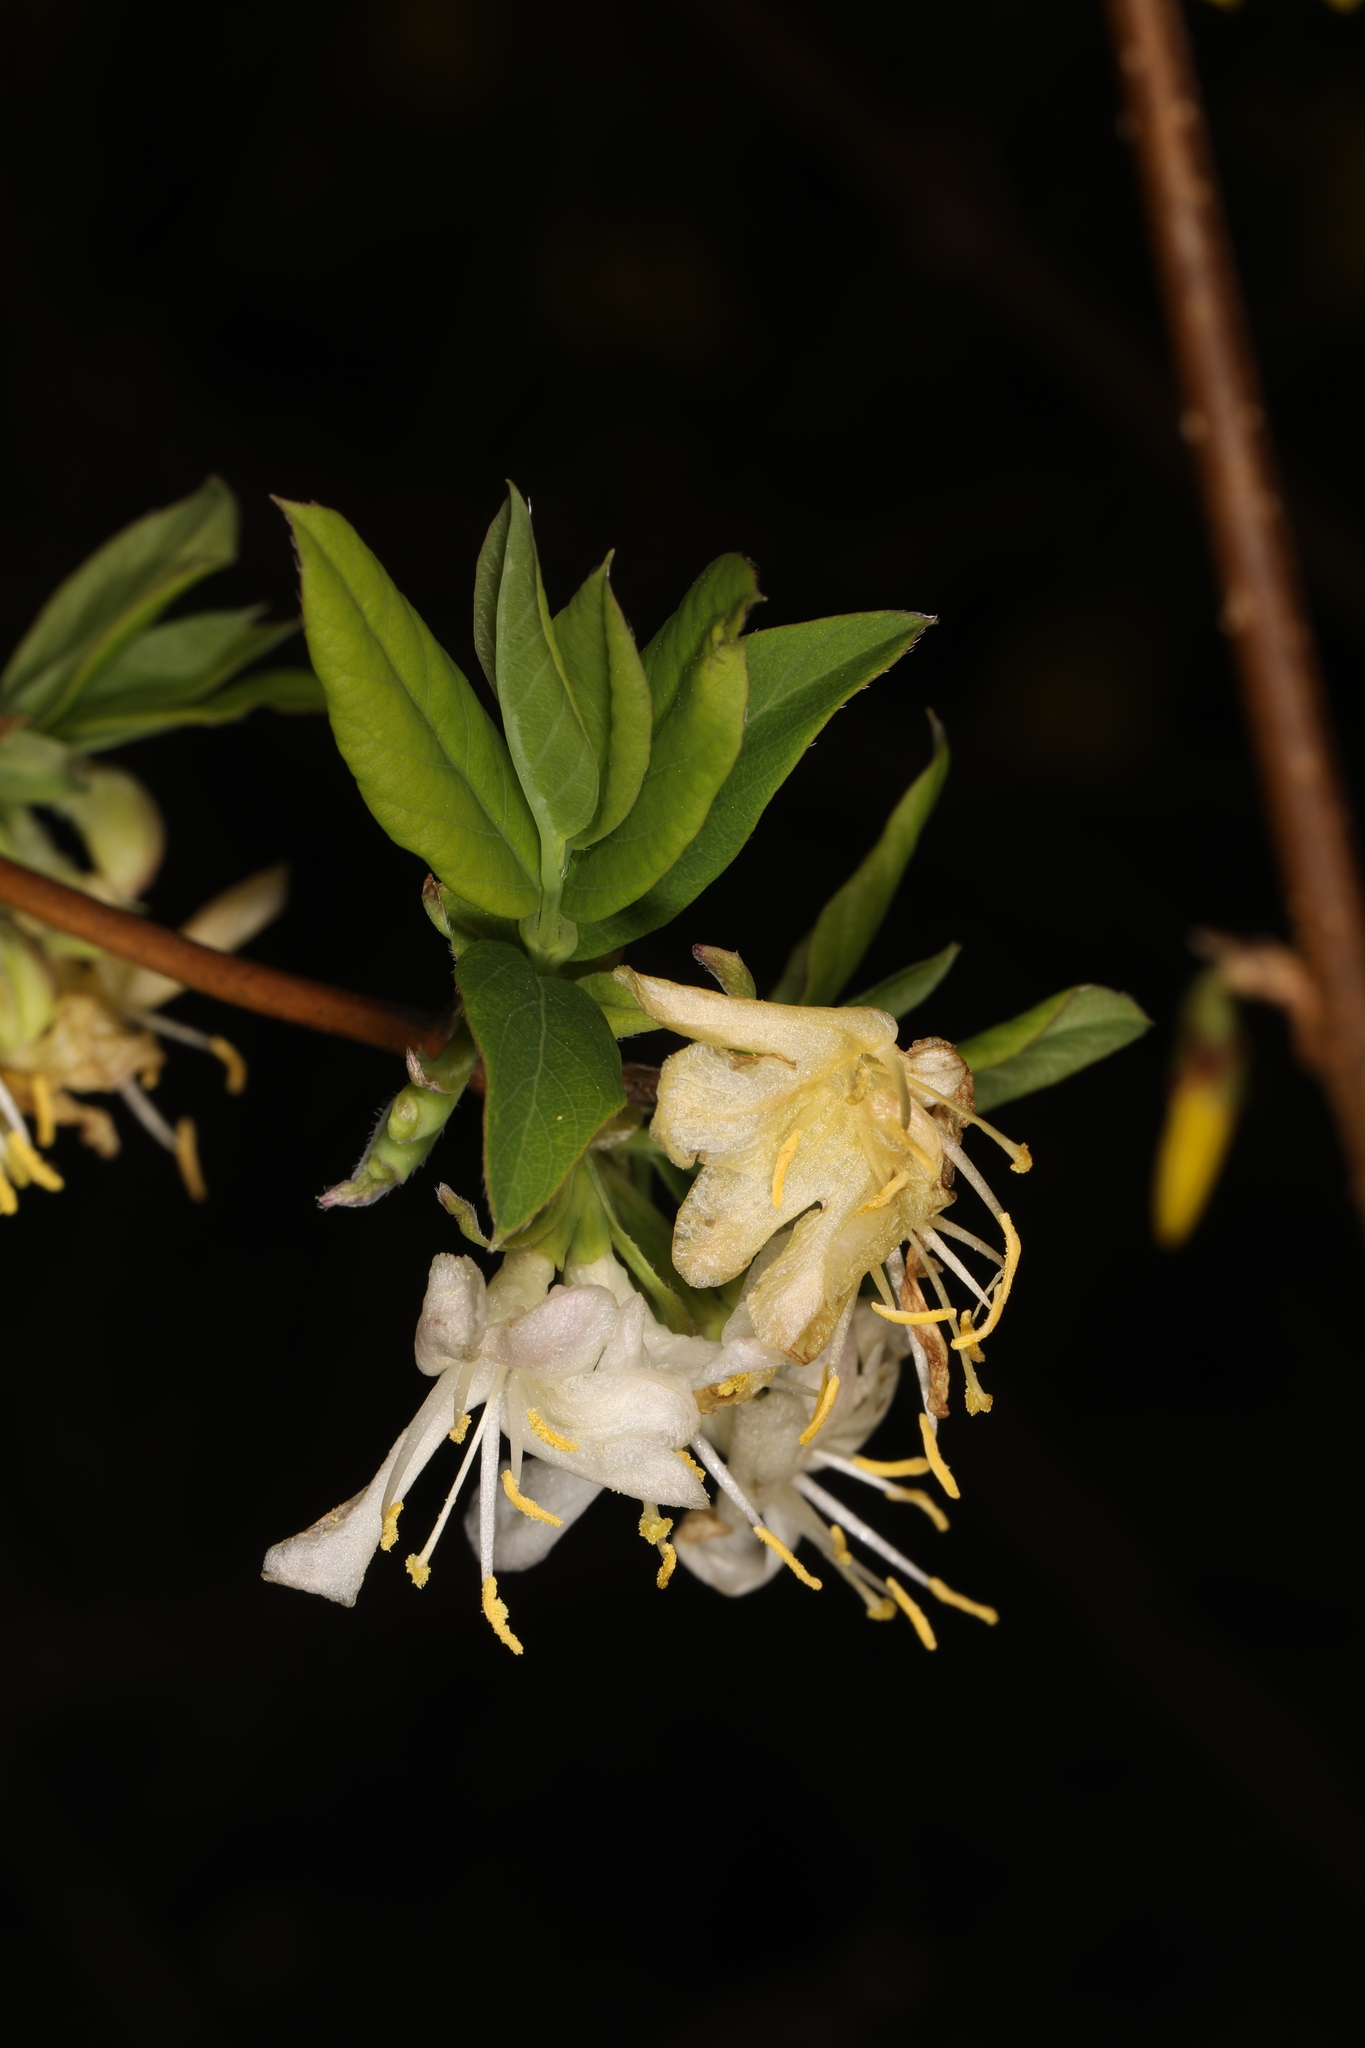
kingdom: Plantae
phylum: Tracheophyta
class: Magnoliopsida
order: Dipsacales
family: Caprifoliaceae
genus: Lonicera
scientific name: Lonicera fragrantissima
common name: Fragrant honeysuckle
